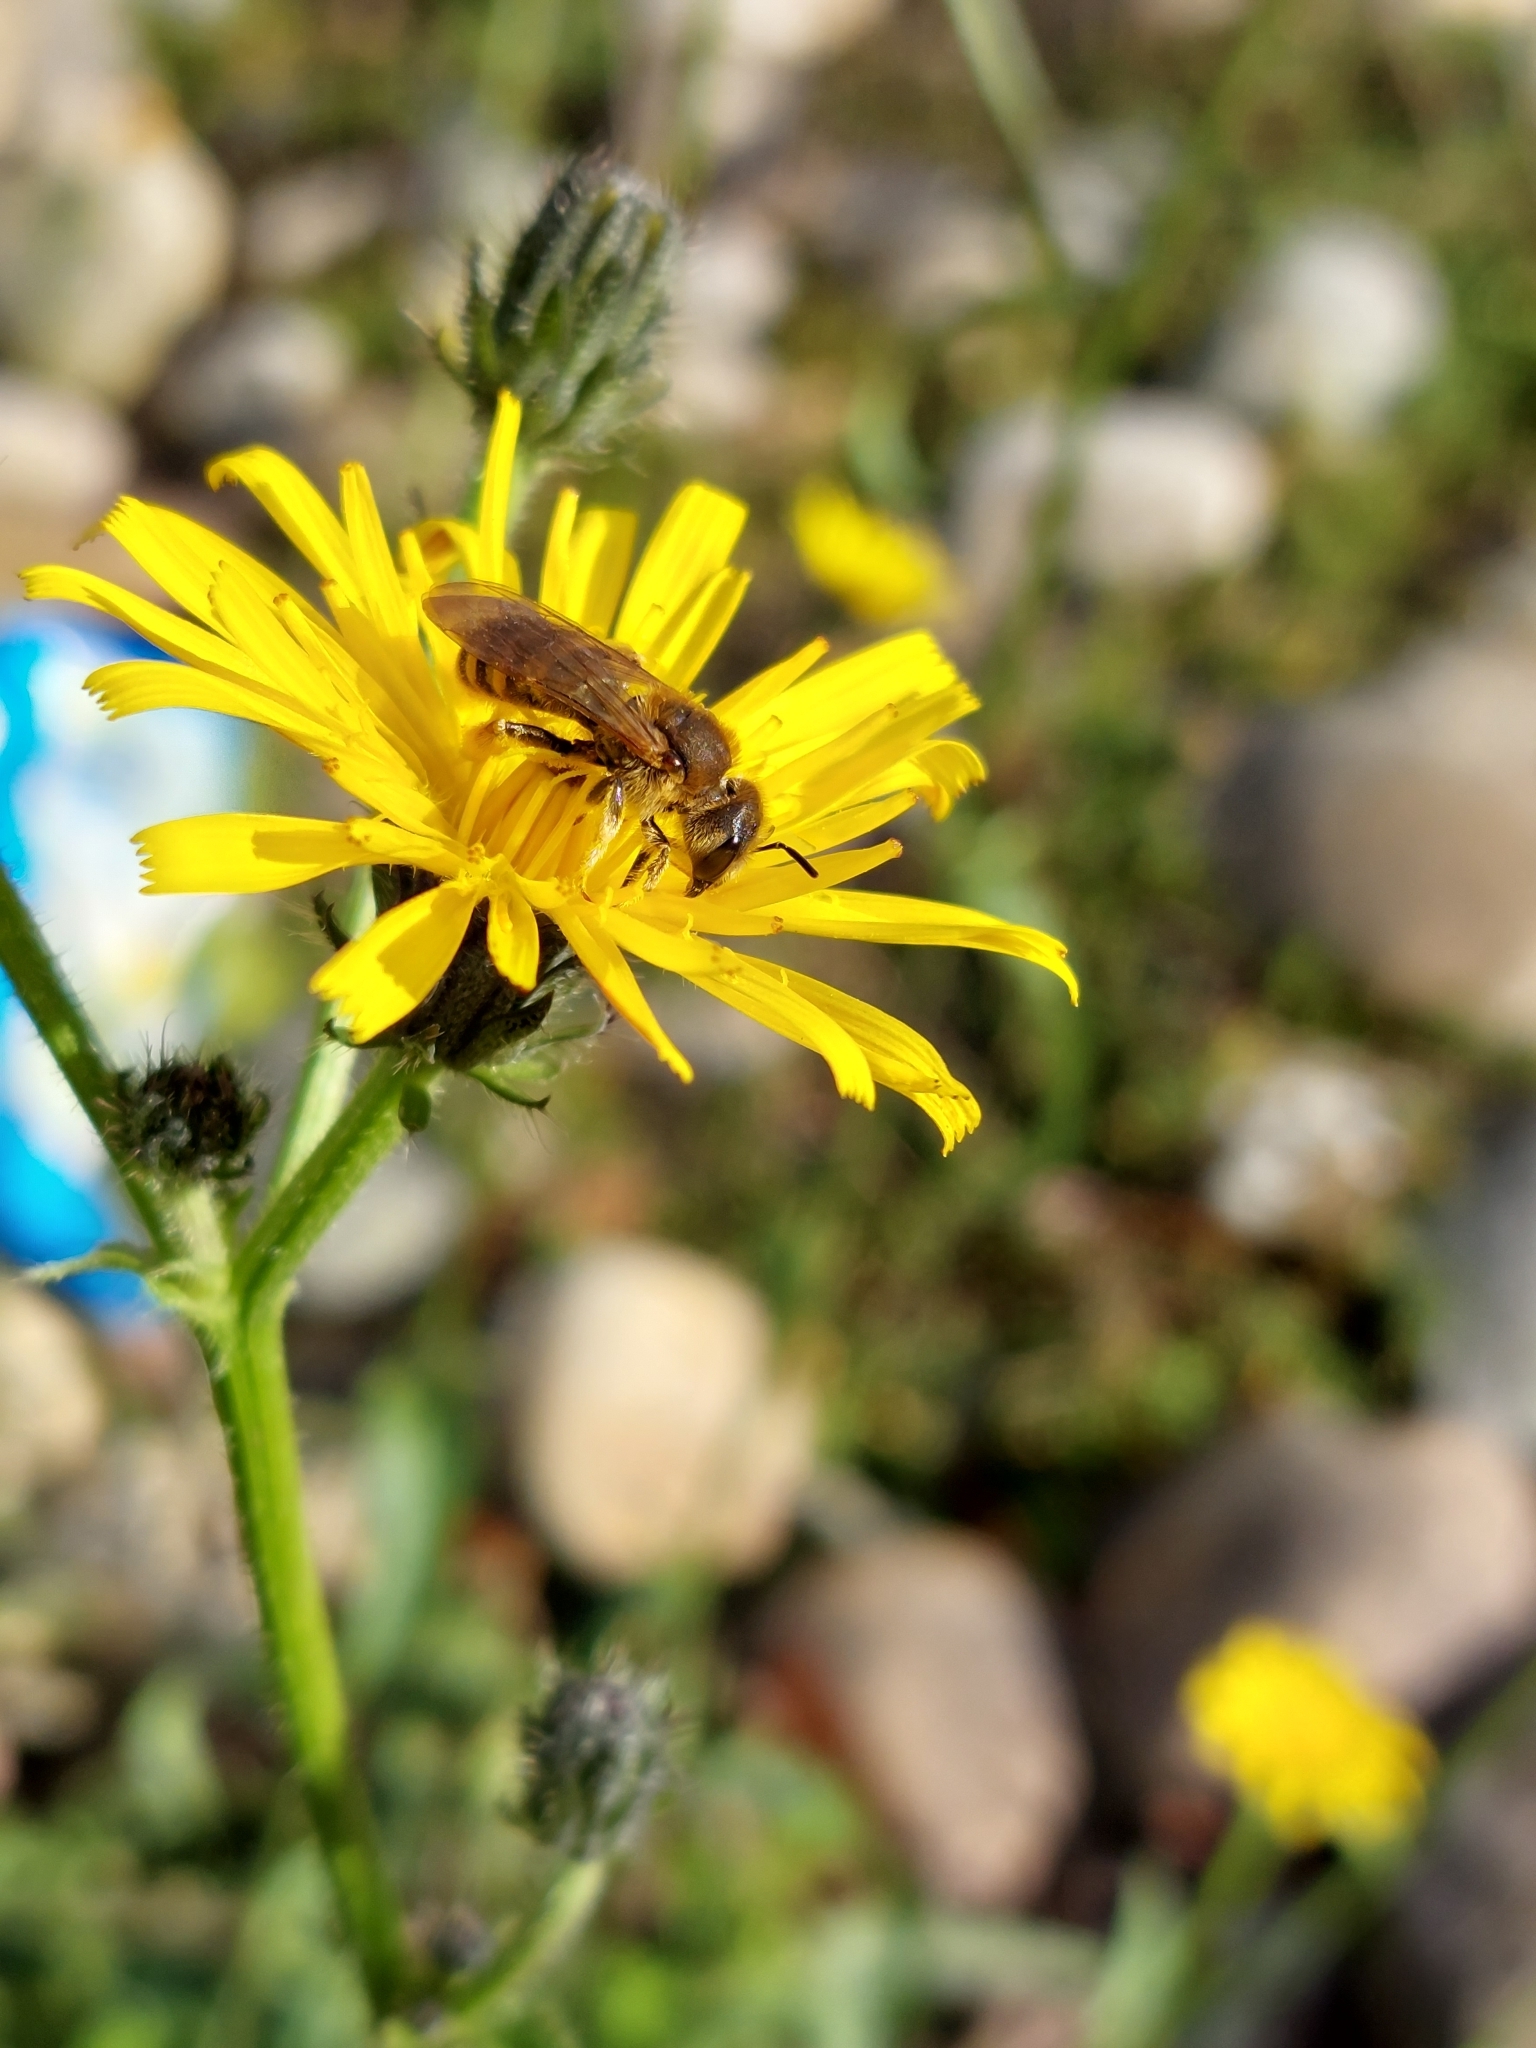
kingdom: Animalia
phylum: Arthropoda
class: Insecta
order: Hymenoptera
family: Halictidae
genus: Halictus
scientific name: Halictus scabiosae
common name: Great banded furrow bee
